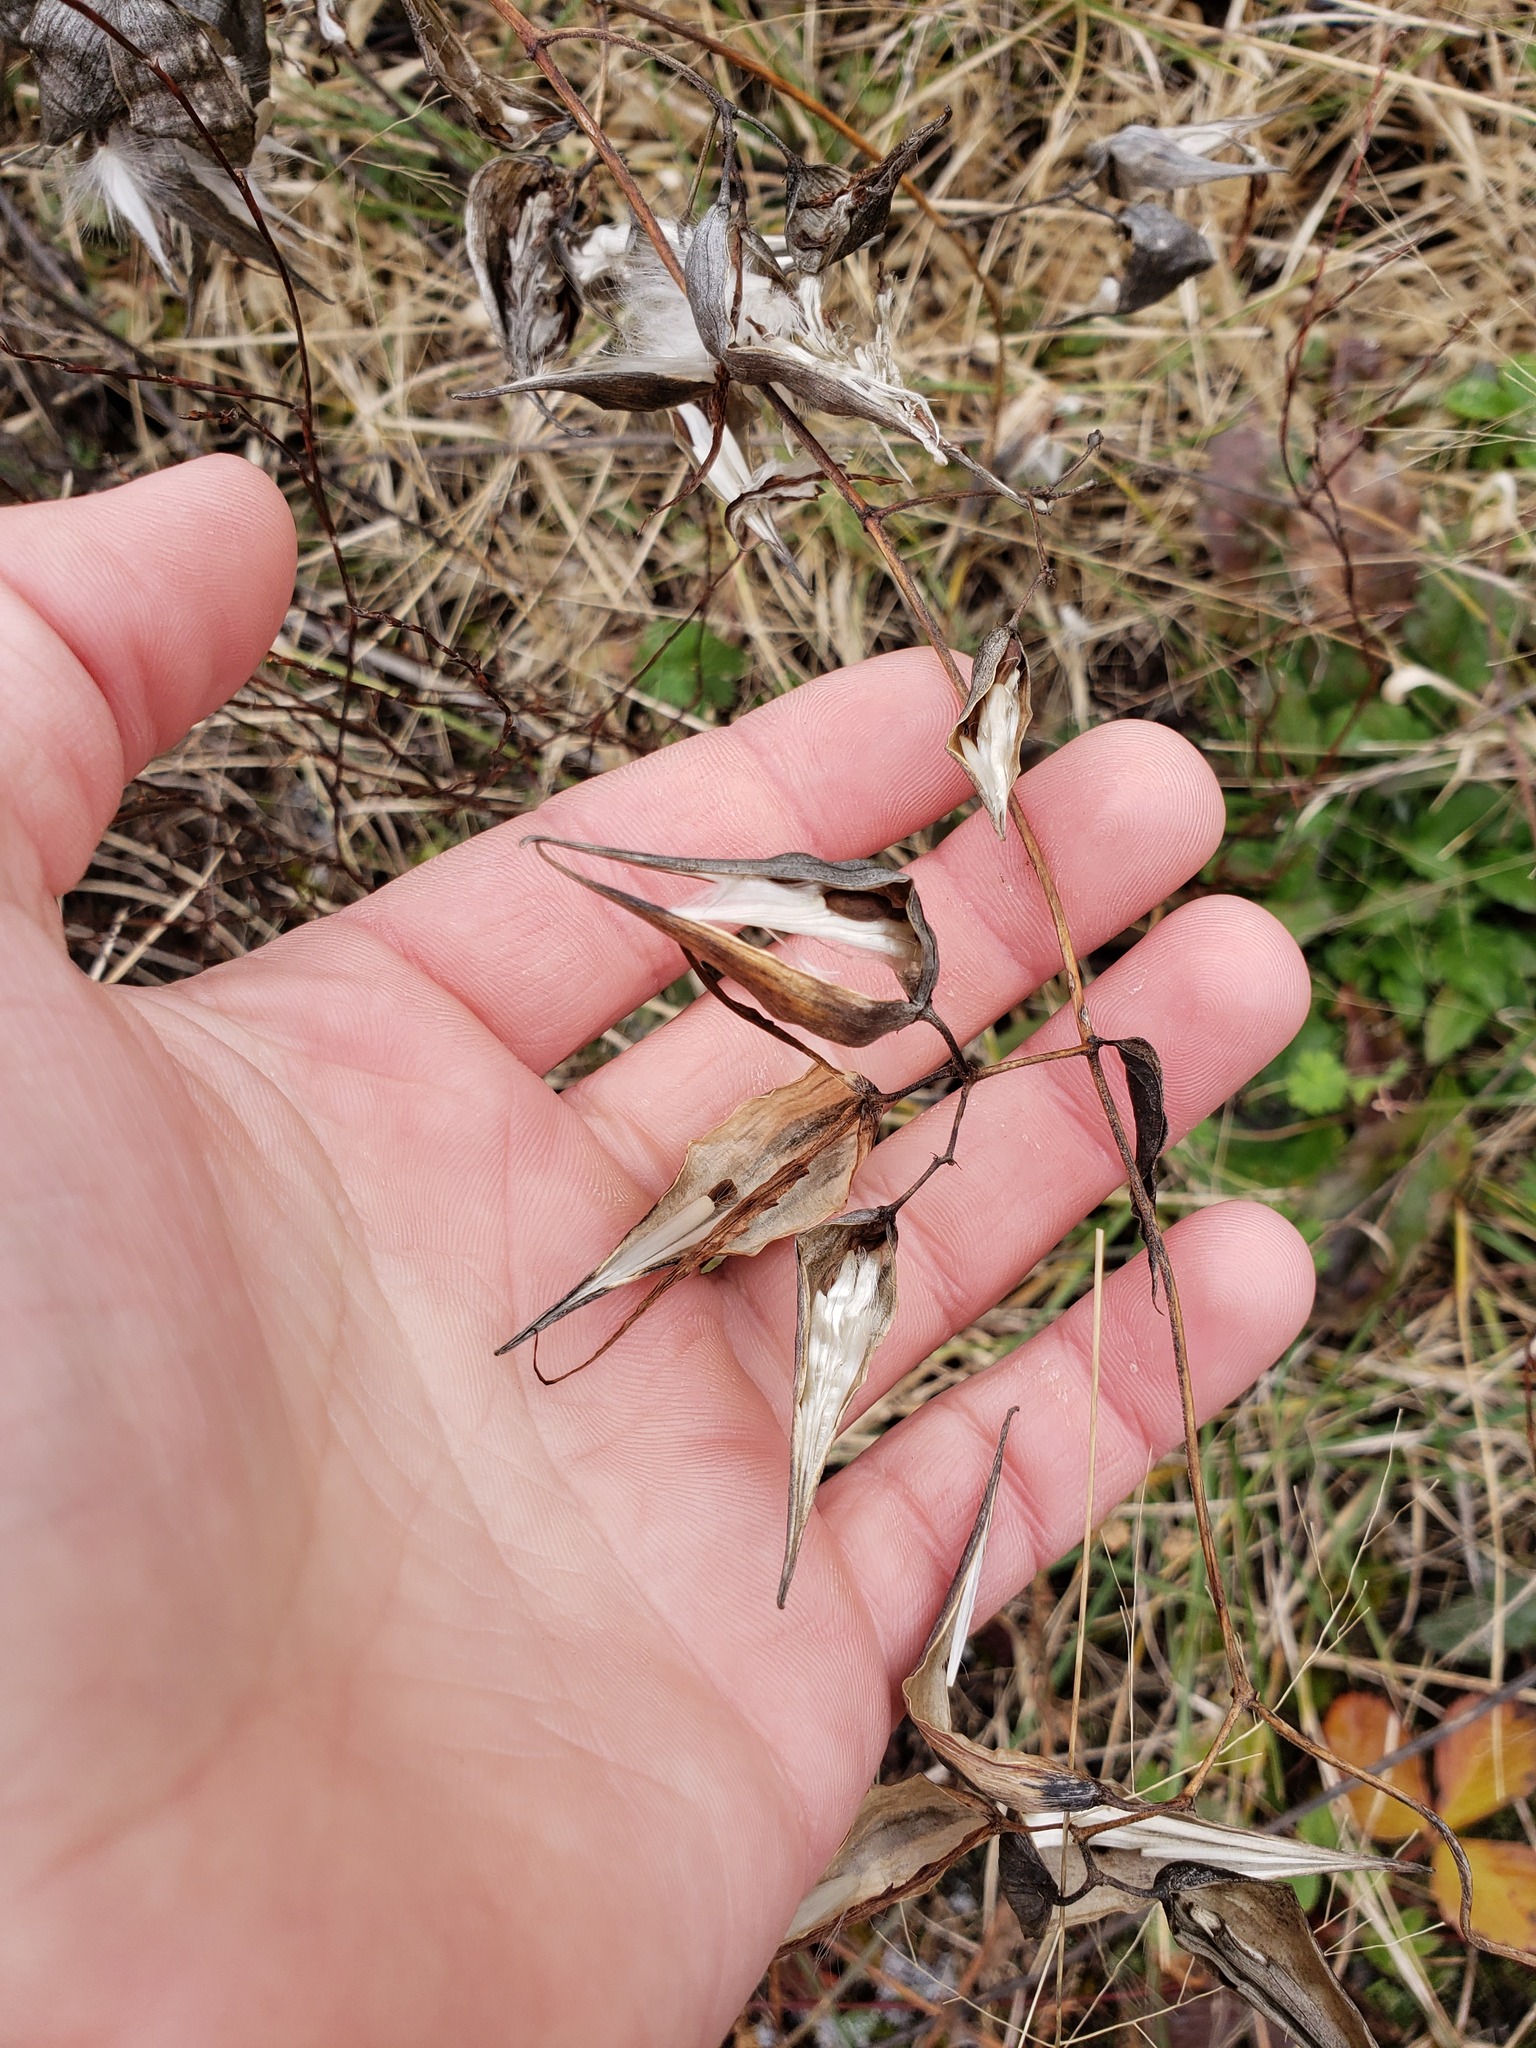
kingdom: Plantae
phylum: Tracheophyta
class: Magnoliopsida
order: Gentianales
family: Apocynaceae
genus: Vincetoxicum
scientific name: Vincetoxicum rossicum
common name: Dog-strangling vine
